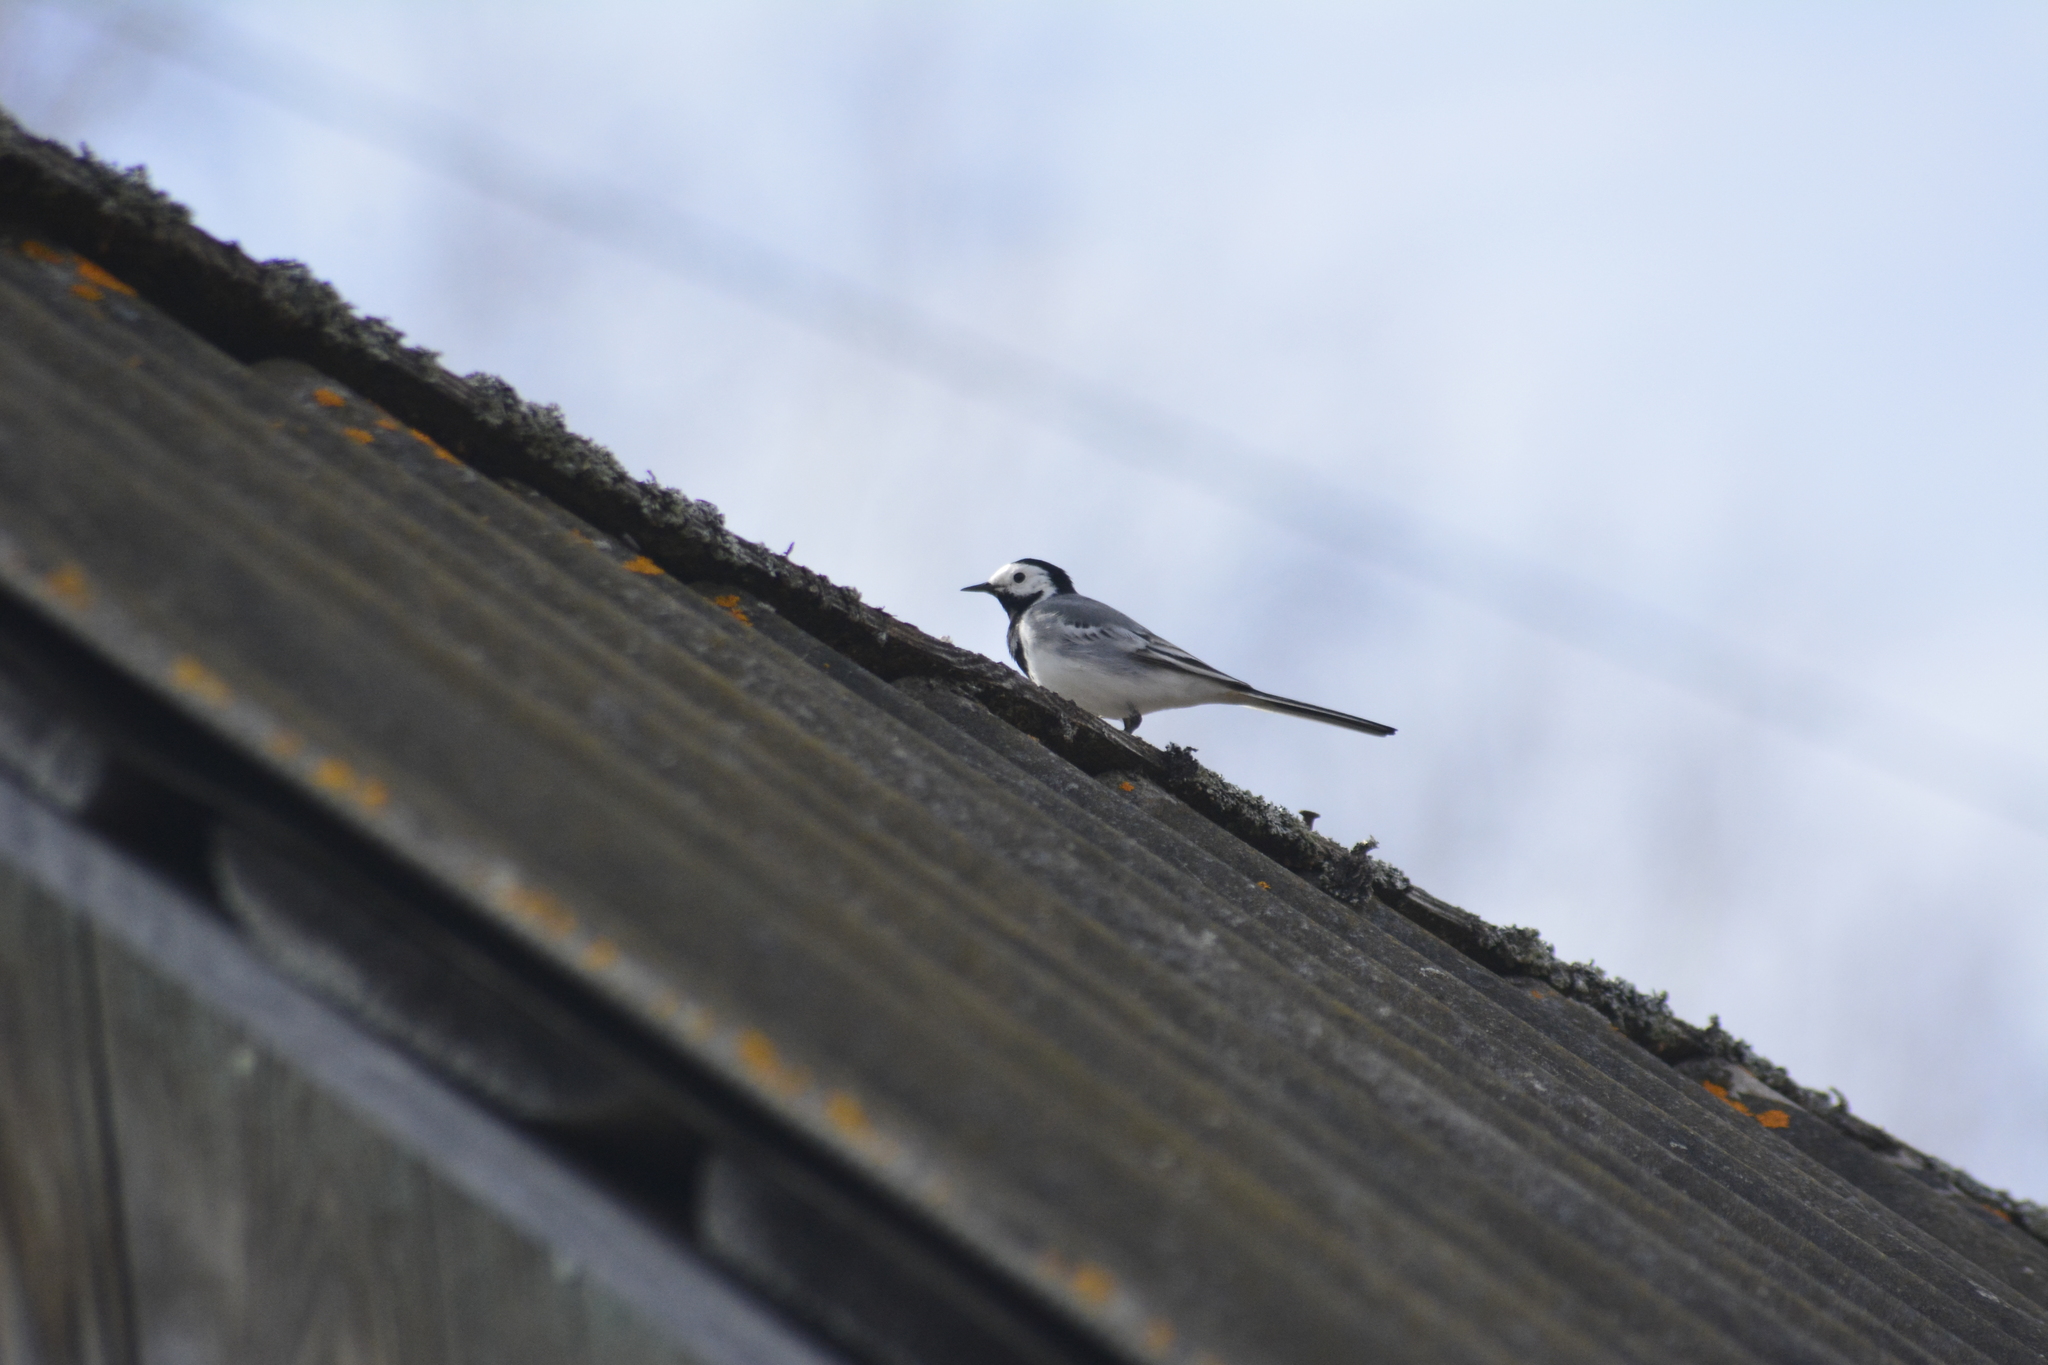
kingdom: Animalia
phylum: Chordata
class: Aves
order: Passeriformes
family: Motacillidae
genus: Motacilla
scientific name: Motacilla alba
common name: White wagtail
